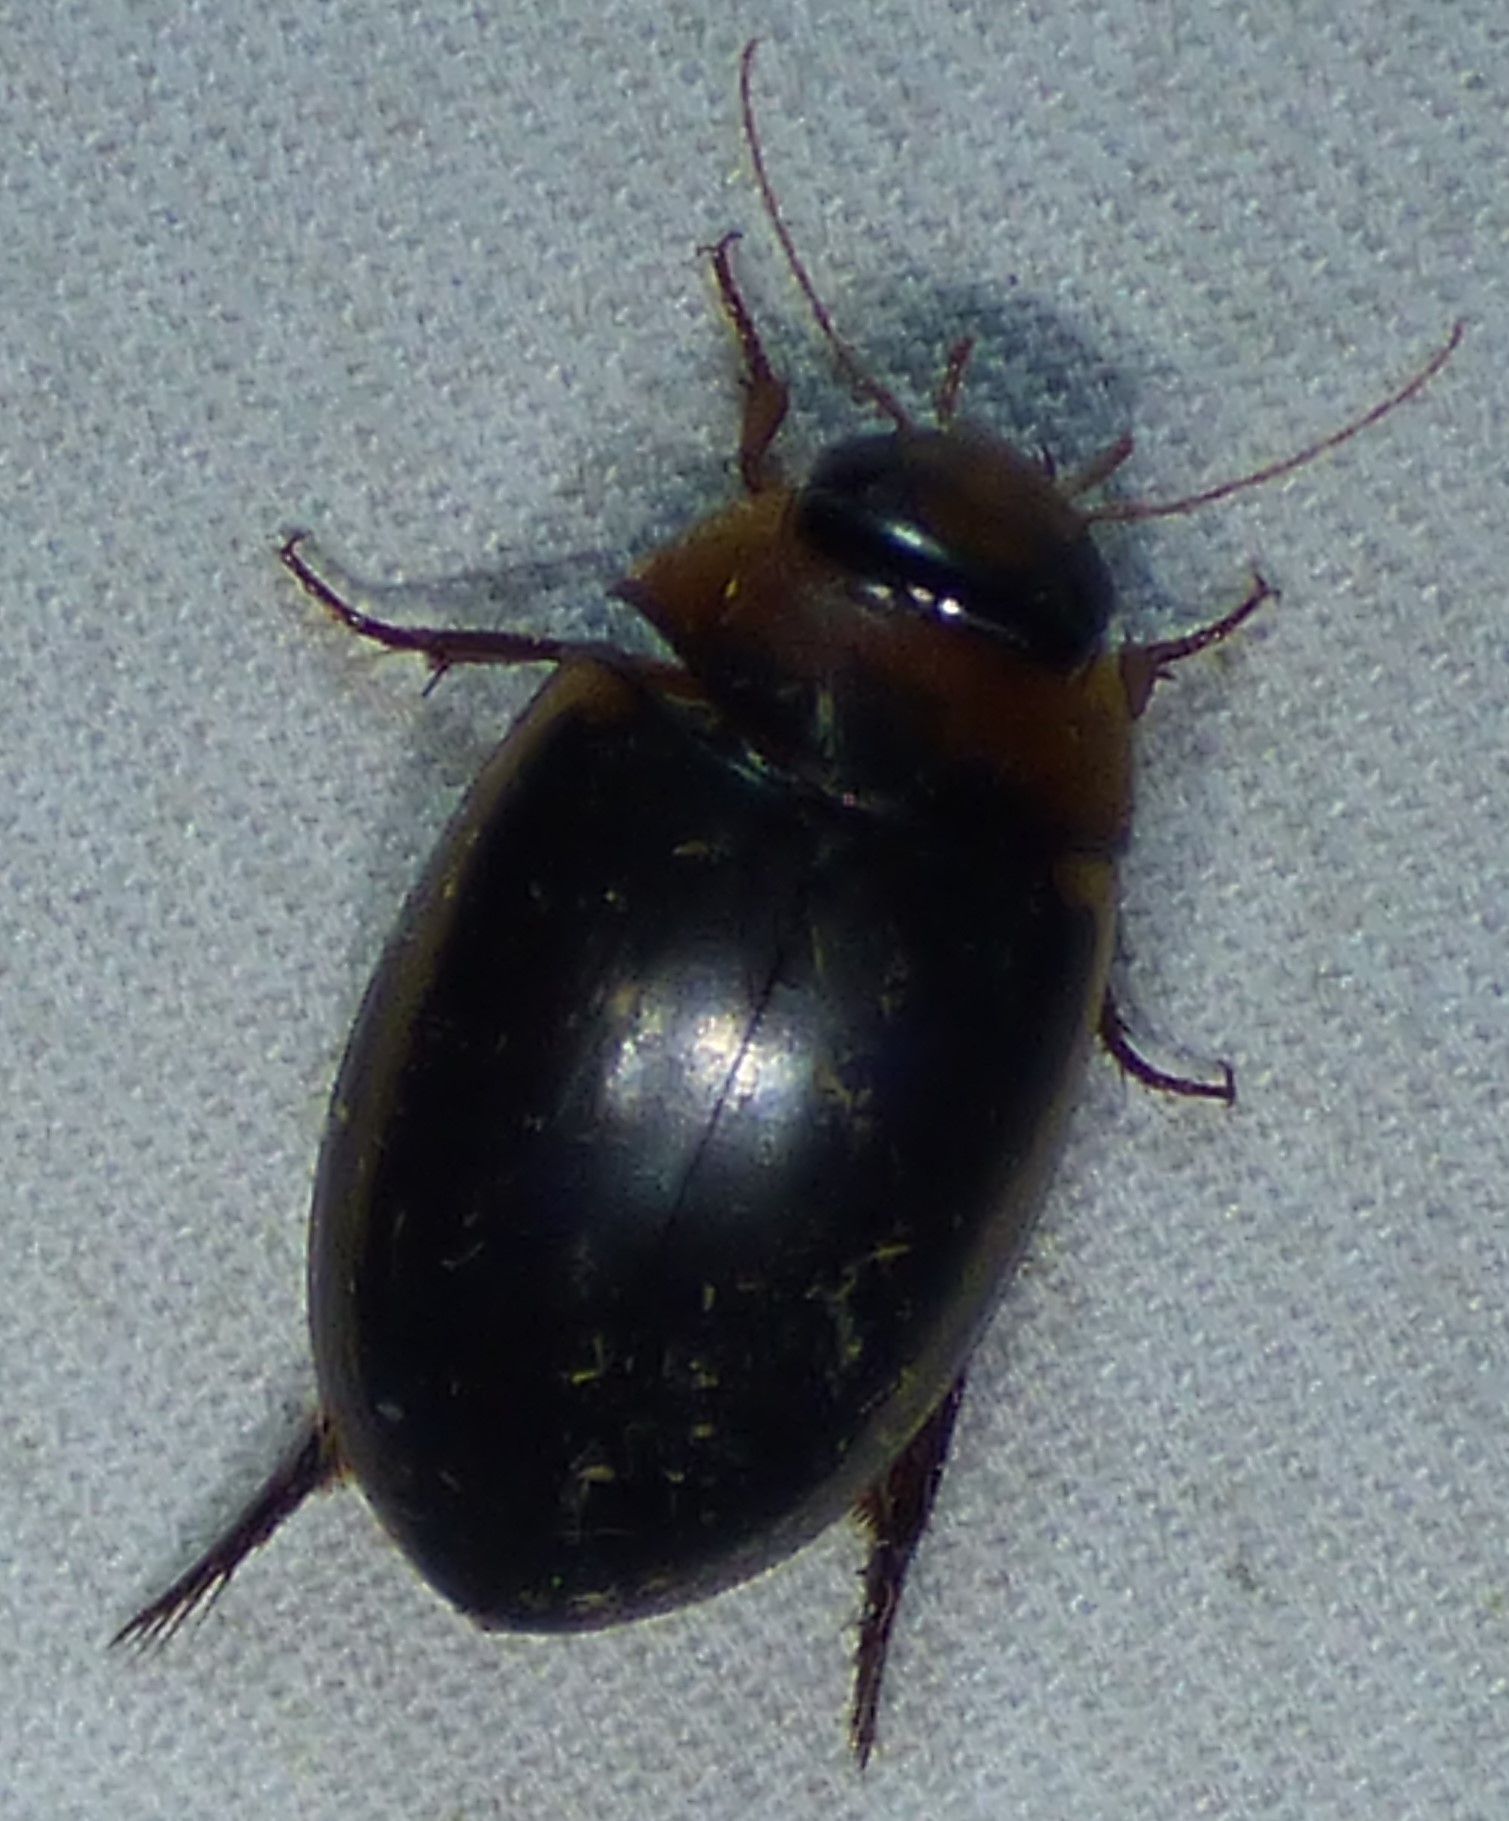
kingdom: Animalia
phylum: Arthropoda
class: Insecta
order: Coleoptera
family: Dytiscidae
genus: Hydaticus
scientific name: Hydaticus bimarginatus
